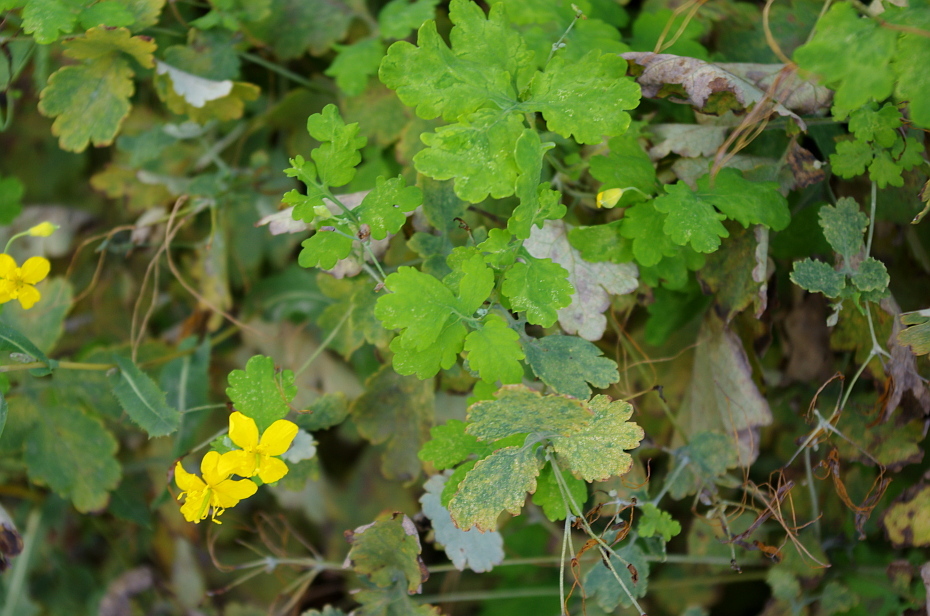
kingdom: Plantae
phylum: Tracheophyta
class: Magnoliopsida
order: Ranunculales
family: Papaveraceae
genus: Chelidonium
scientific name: Chelidonium majus
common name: Greater celandine
